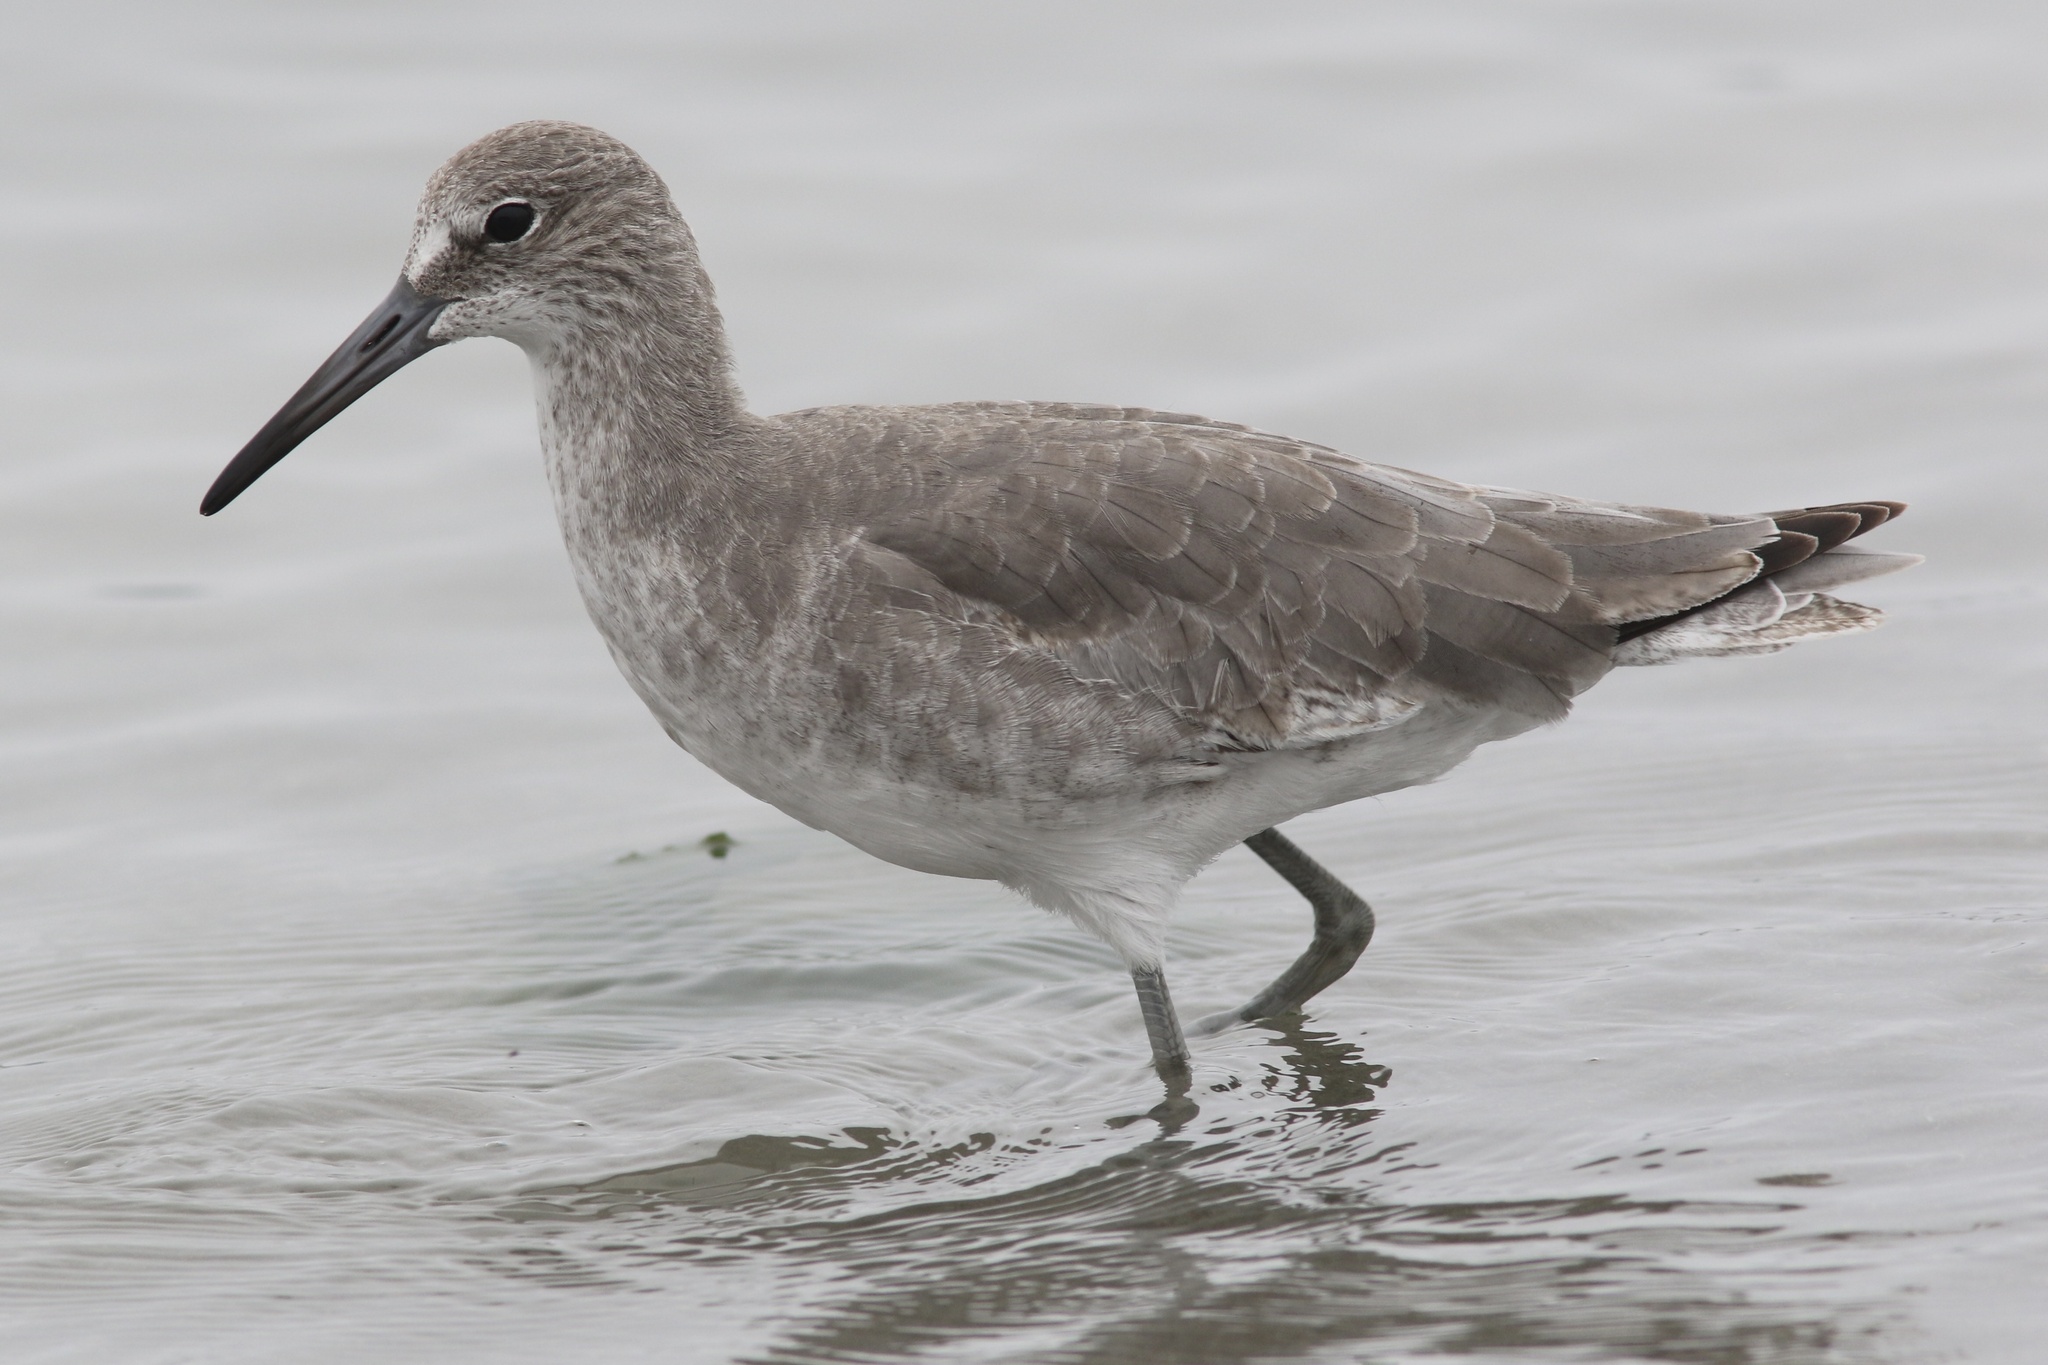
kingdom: Animalia
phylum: Chordata
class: Aves
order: Charadriiformes
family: Scolopacidae
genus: Tringa
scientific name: Tringa semipalmata
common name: Willet
